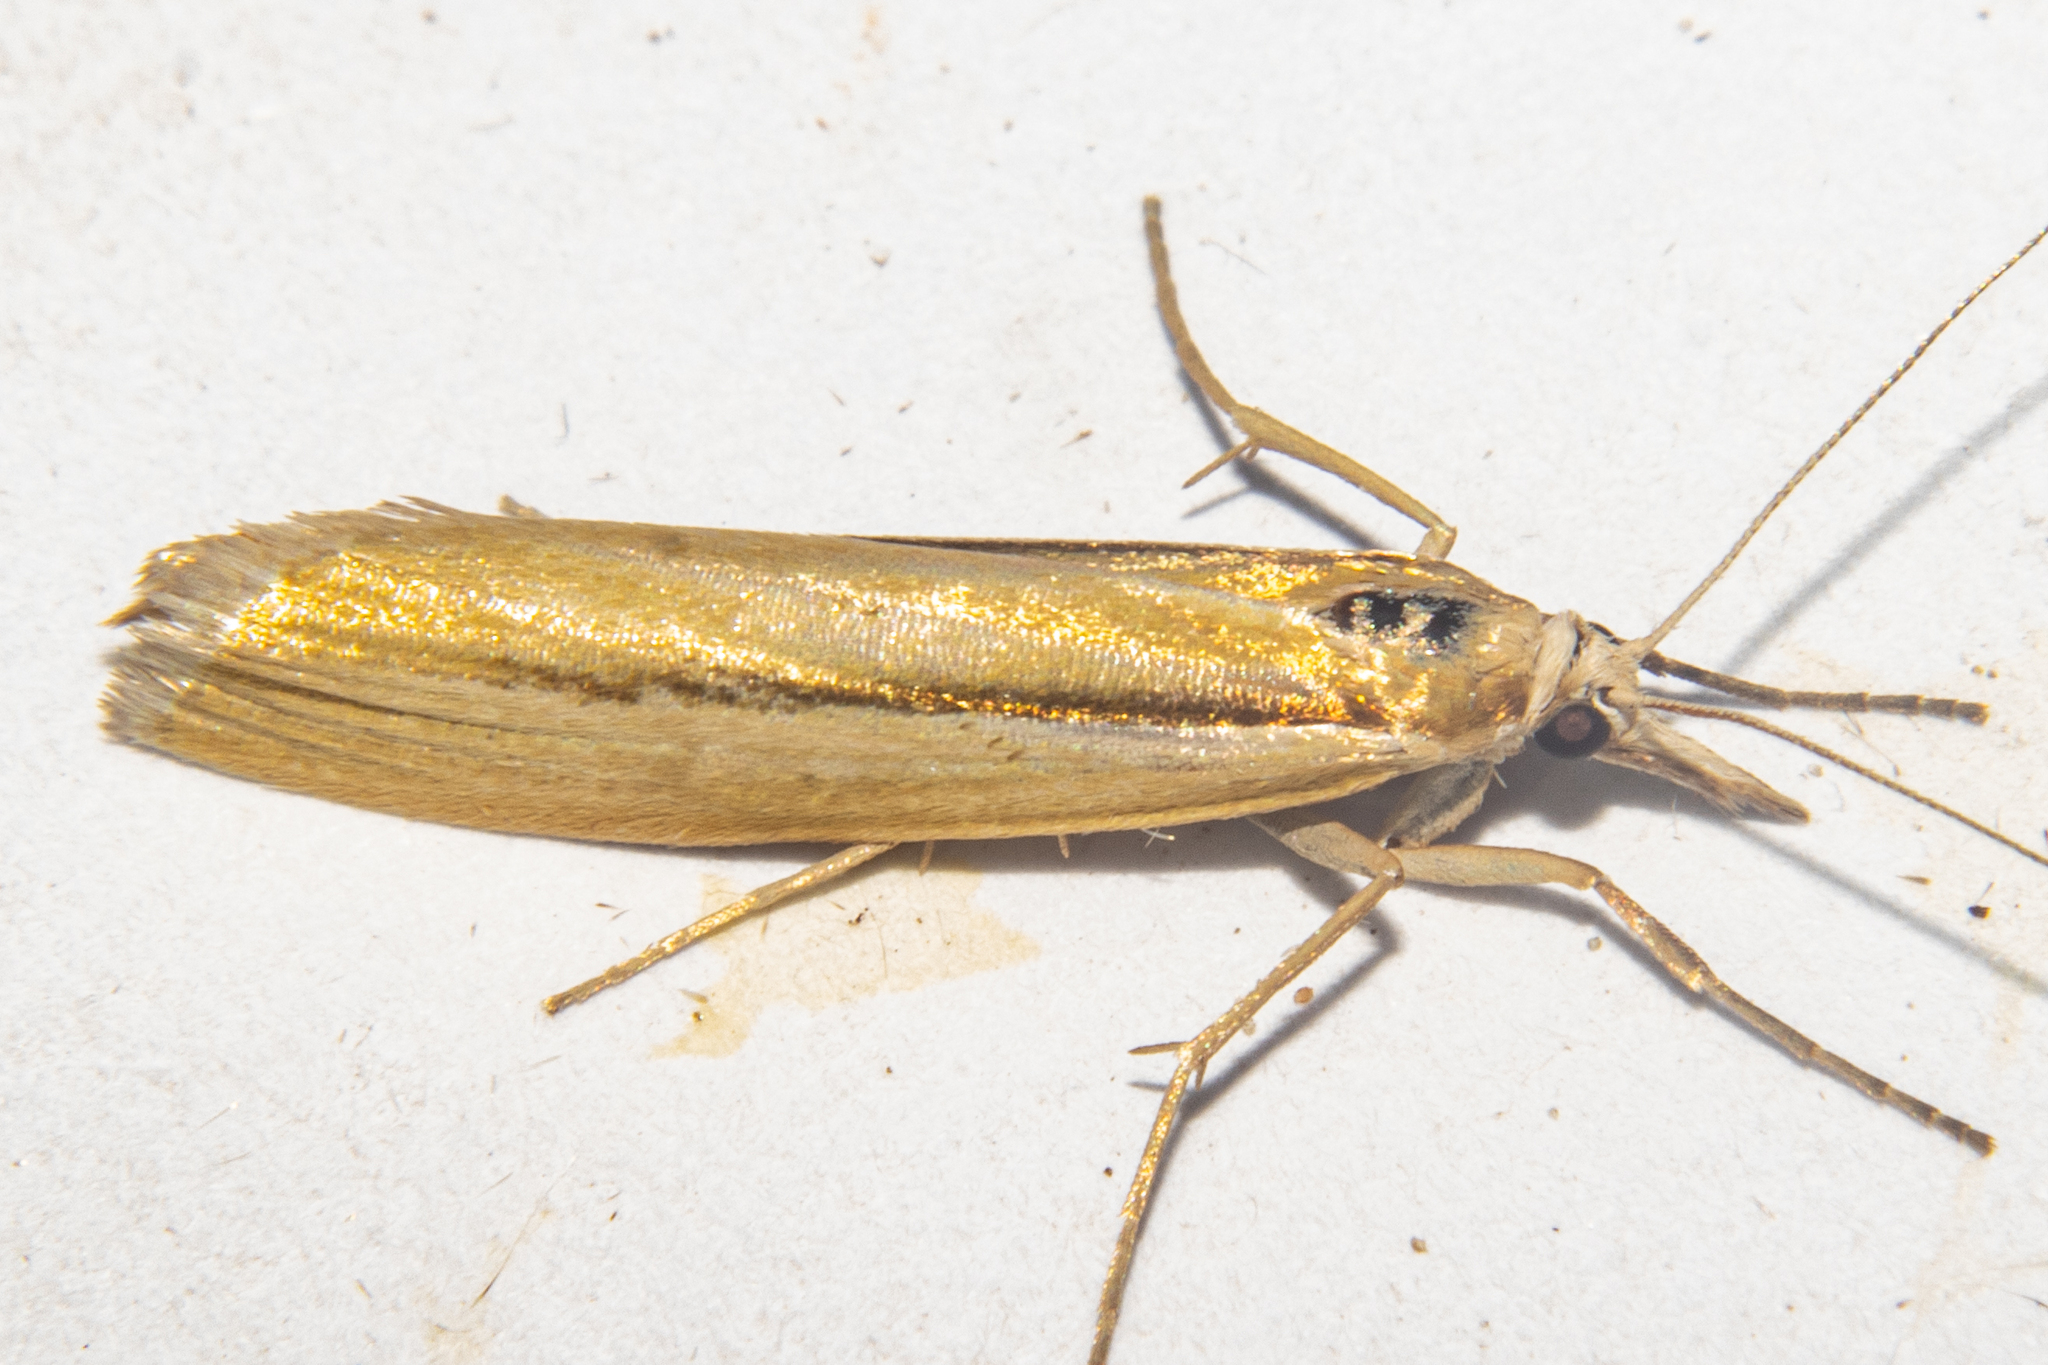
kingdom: Animalia
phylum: Arthropoda
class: Insecta
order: Lepidoptera
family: Crambidae
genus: Orocrambus
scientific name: Orocrambus ramosellus
